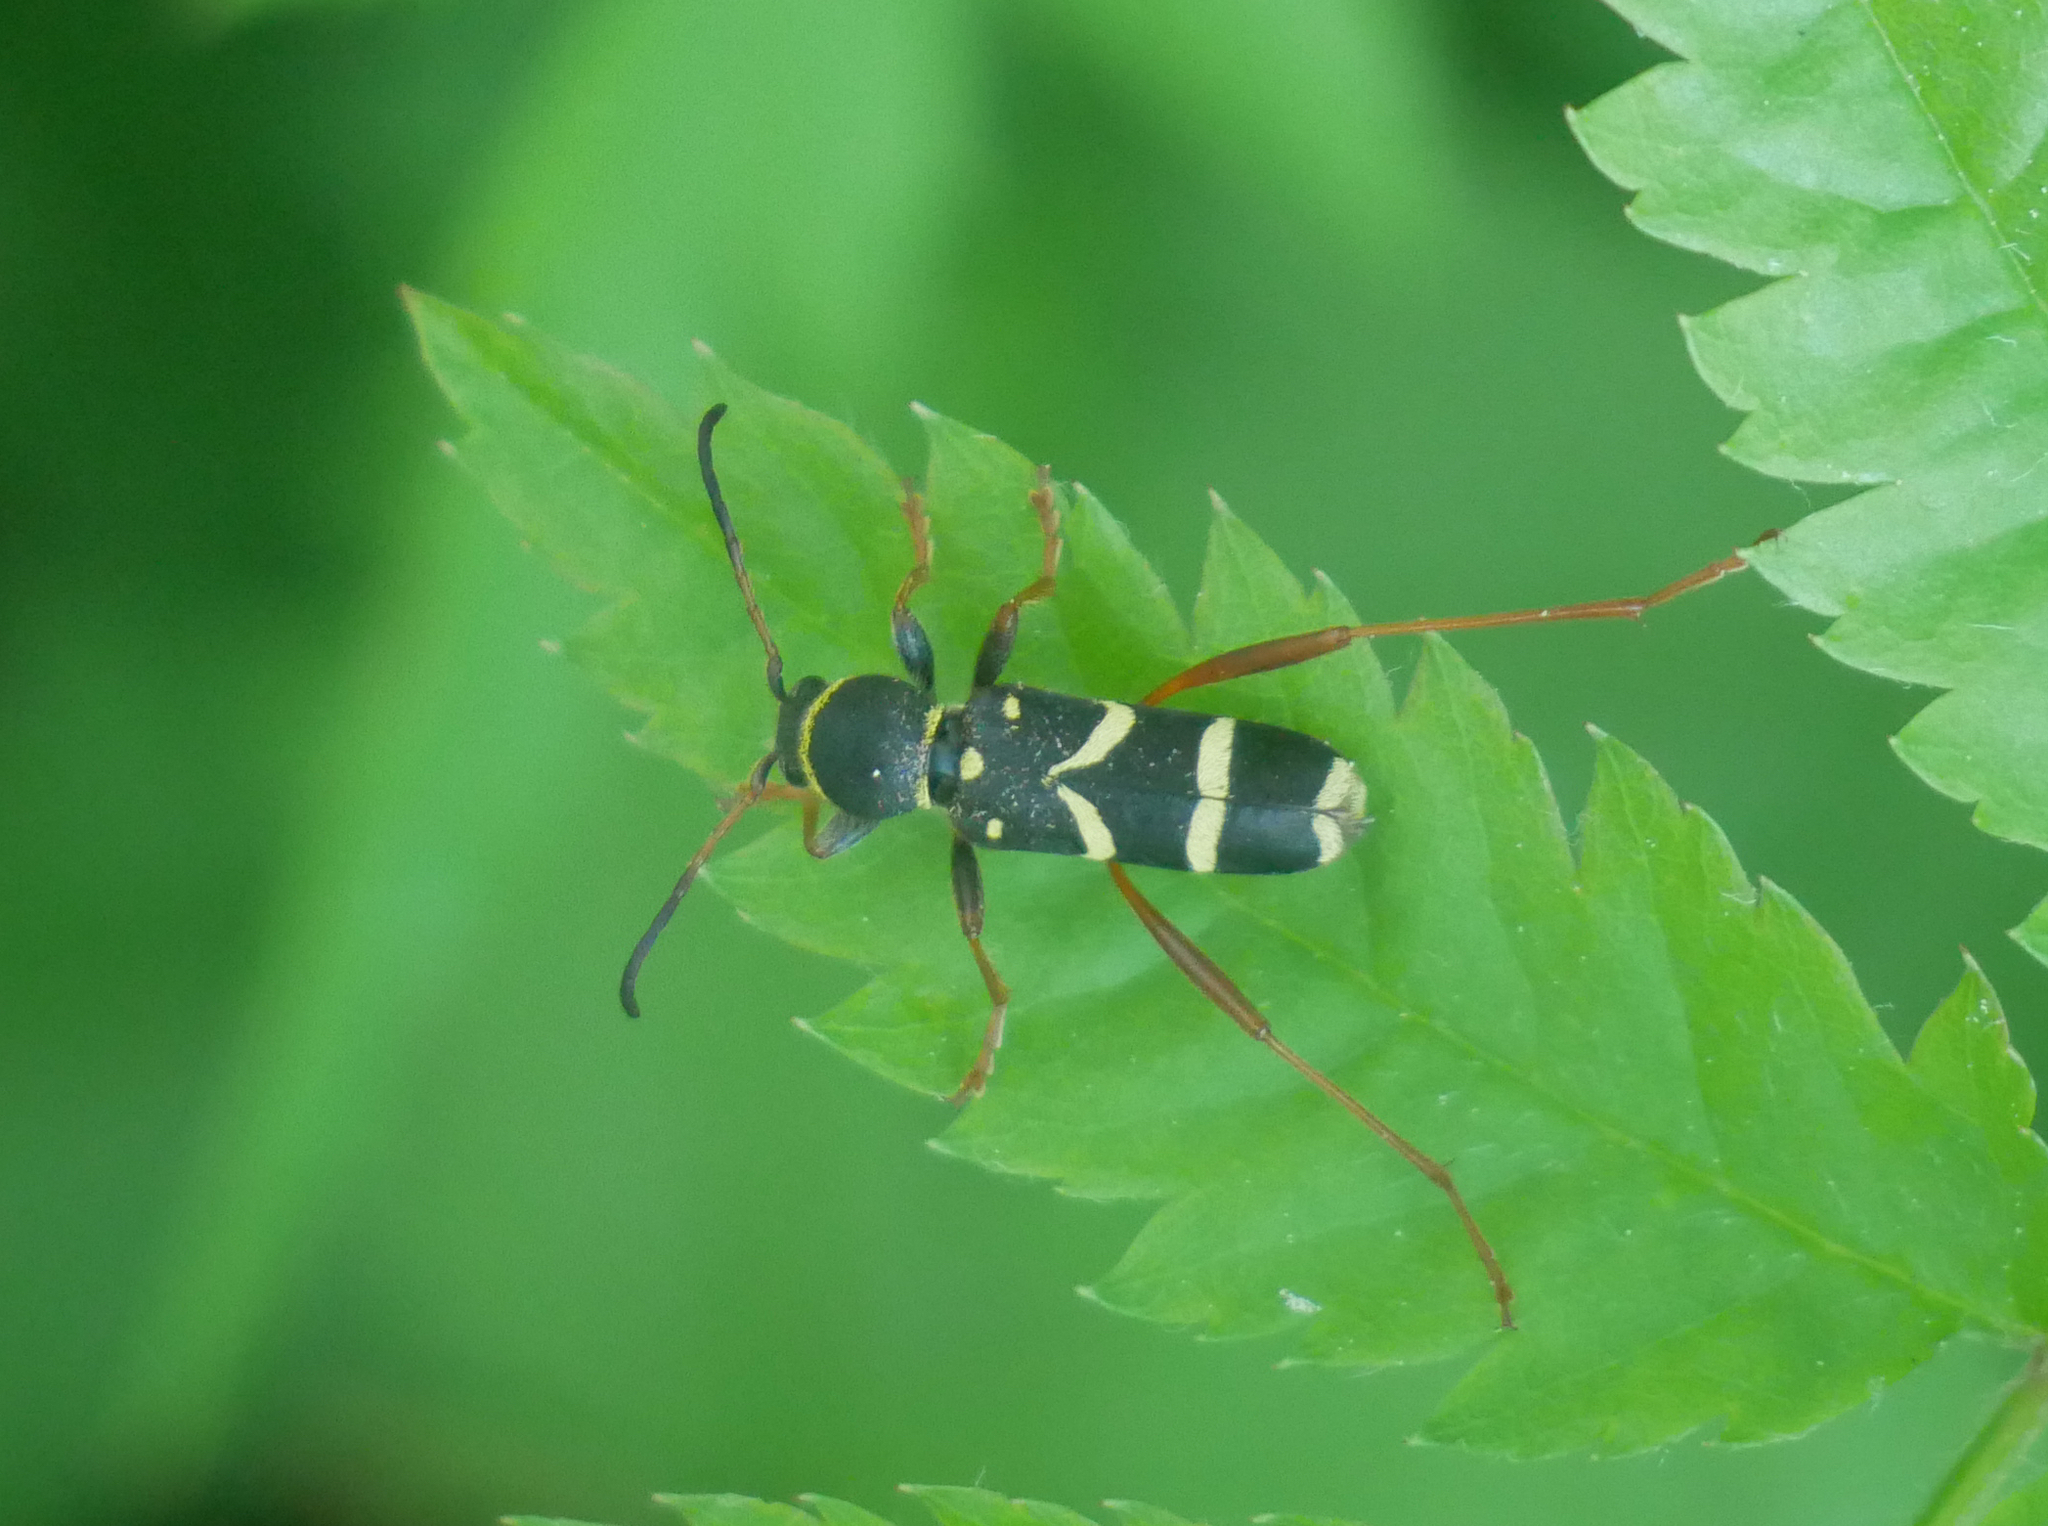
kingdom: Animalia
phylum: Arthropoda
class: Insecta
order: Coleoptera
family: Cerambycidae
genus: Clytus
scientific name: Clytus arietis
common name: Wasp beetle
